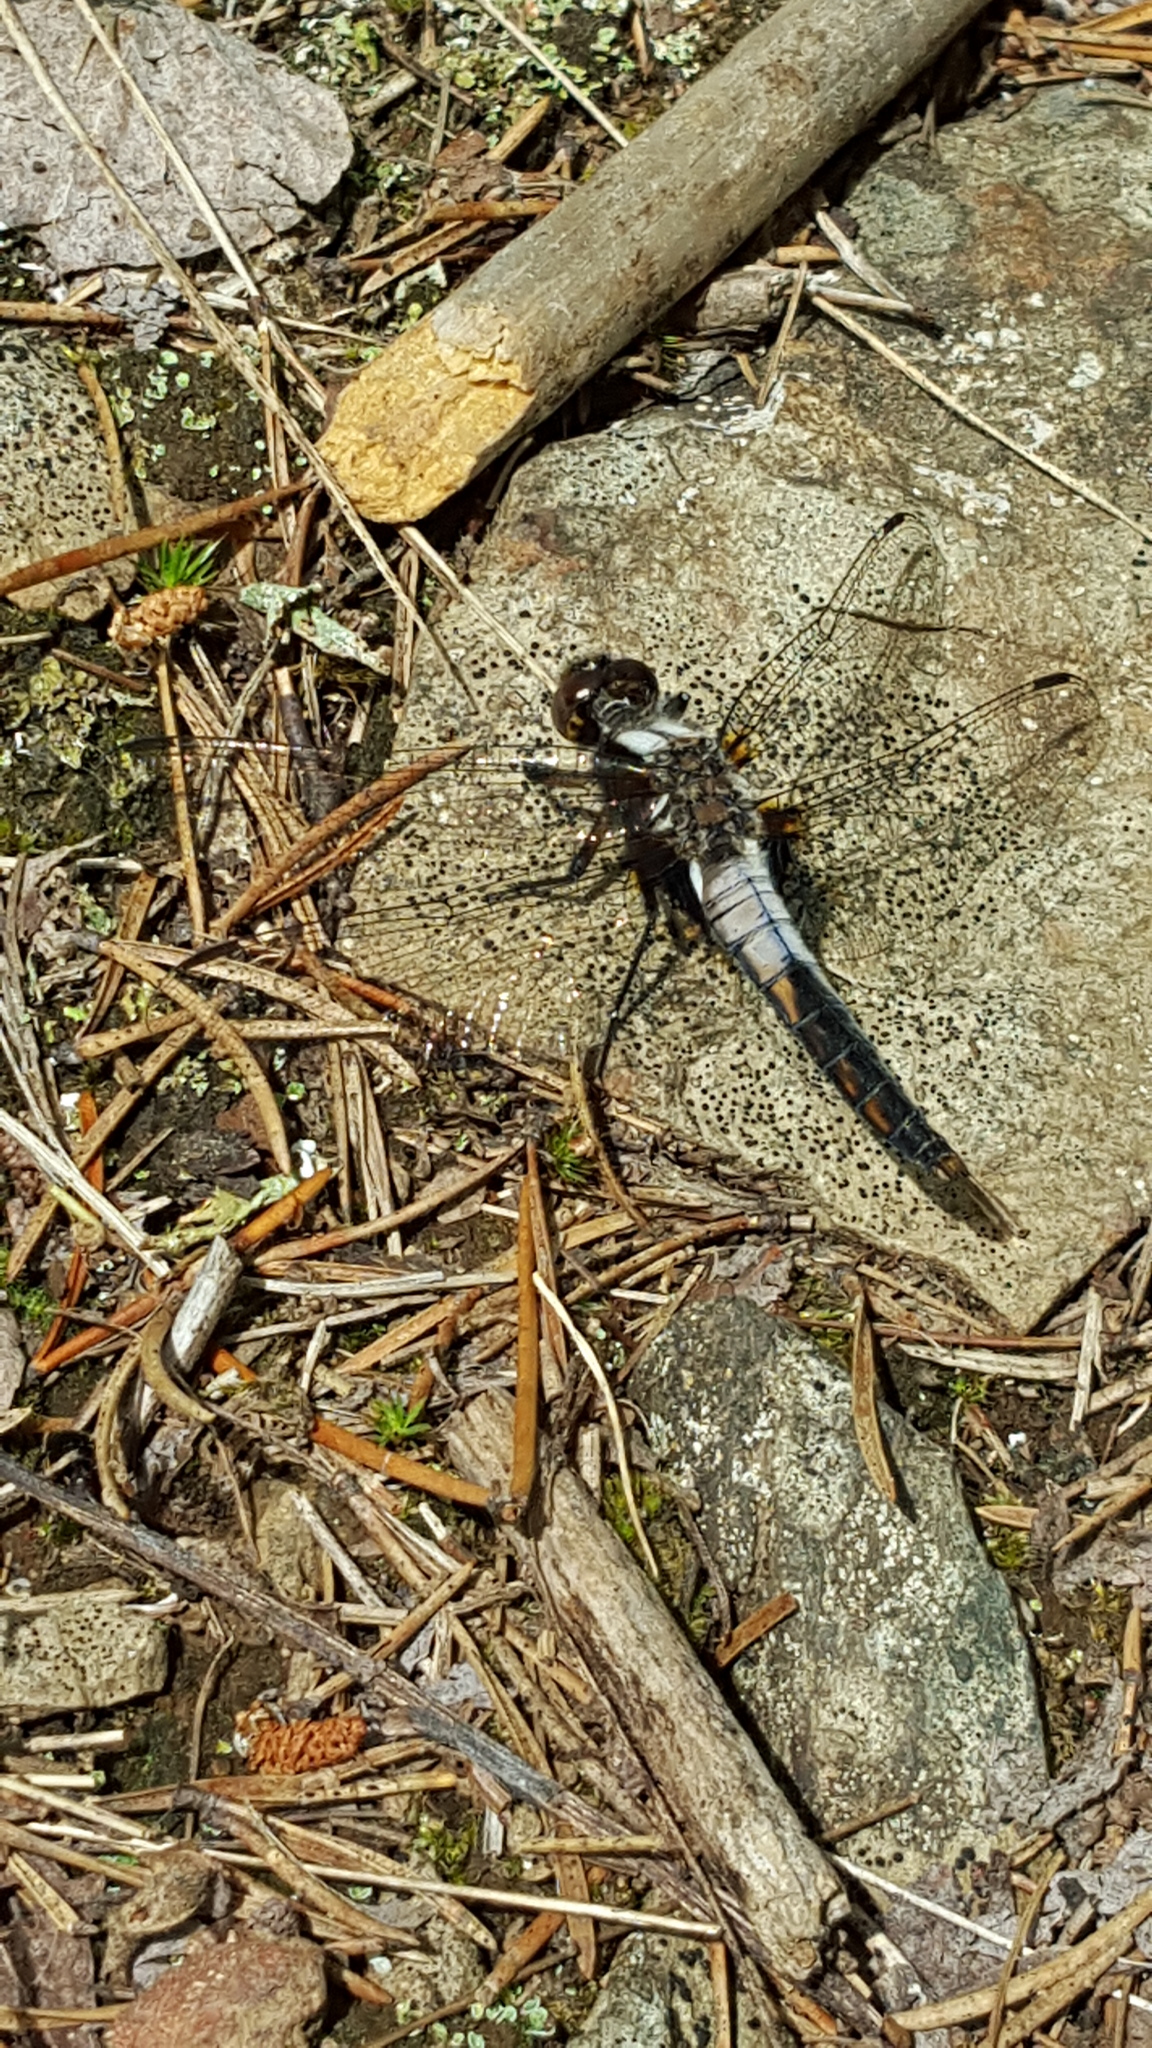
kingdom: Animalia
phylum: Arthropoda
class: Insecta
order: Odonata
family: Libellulidae
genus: Ladona
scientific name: Ladona julia
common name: Chalk-fronted corporal
